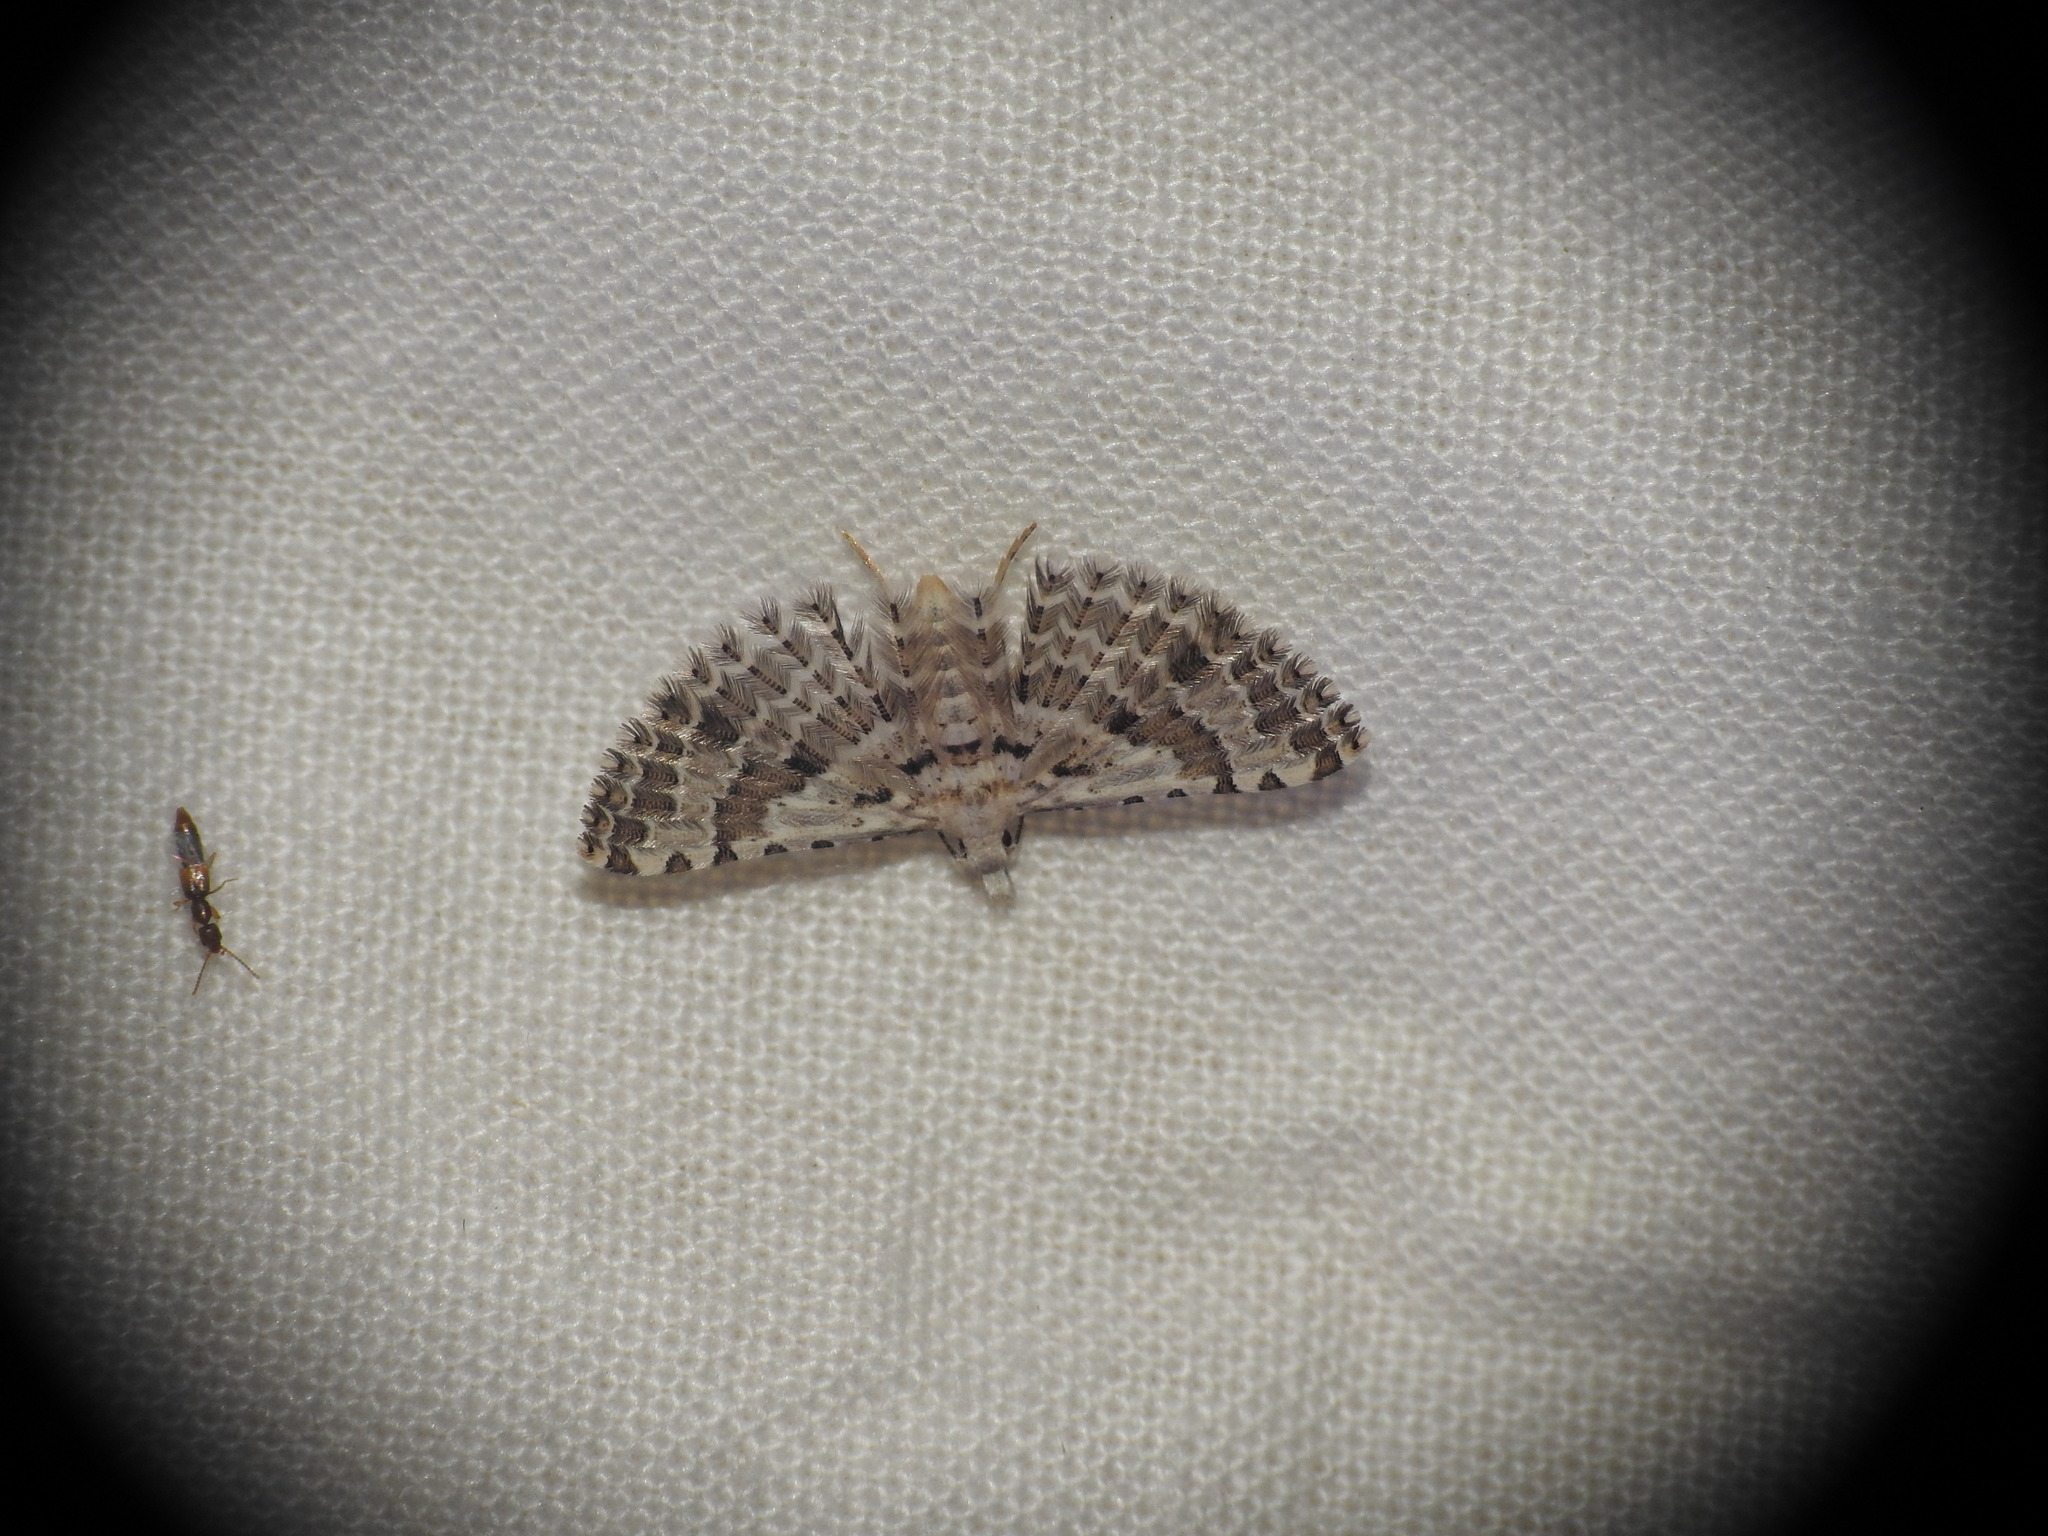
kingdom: Animalia
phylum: Arthropoda
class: Insecta
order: Lepidoptera
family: Alucitidae
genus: Alucita
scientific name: Alucita hexadactyla
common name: Twenty-plume moth
